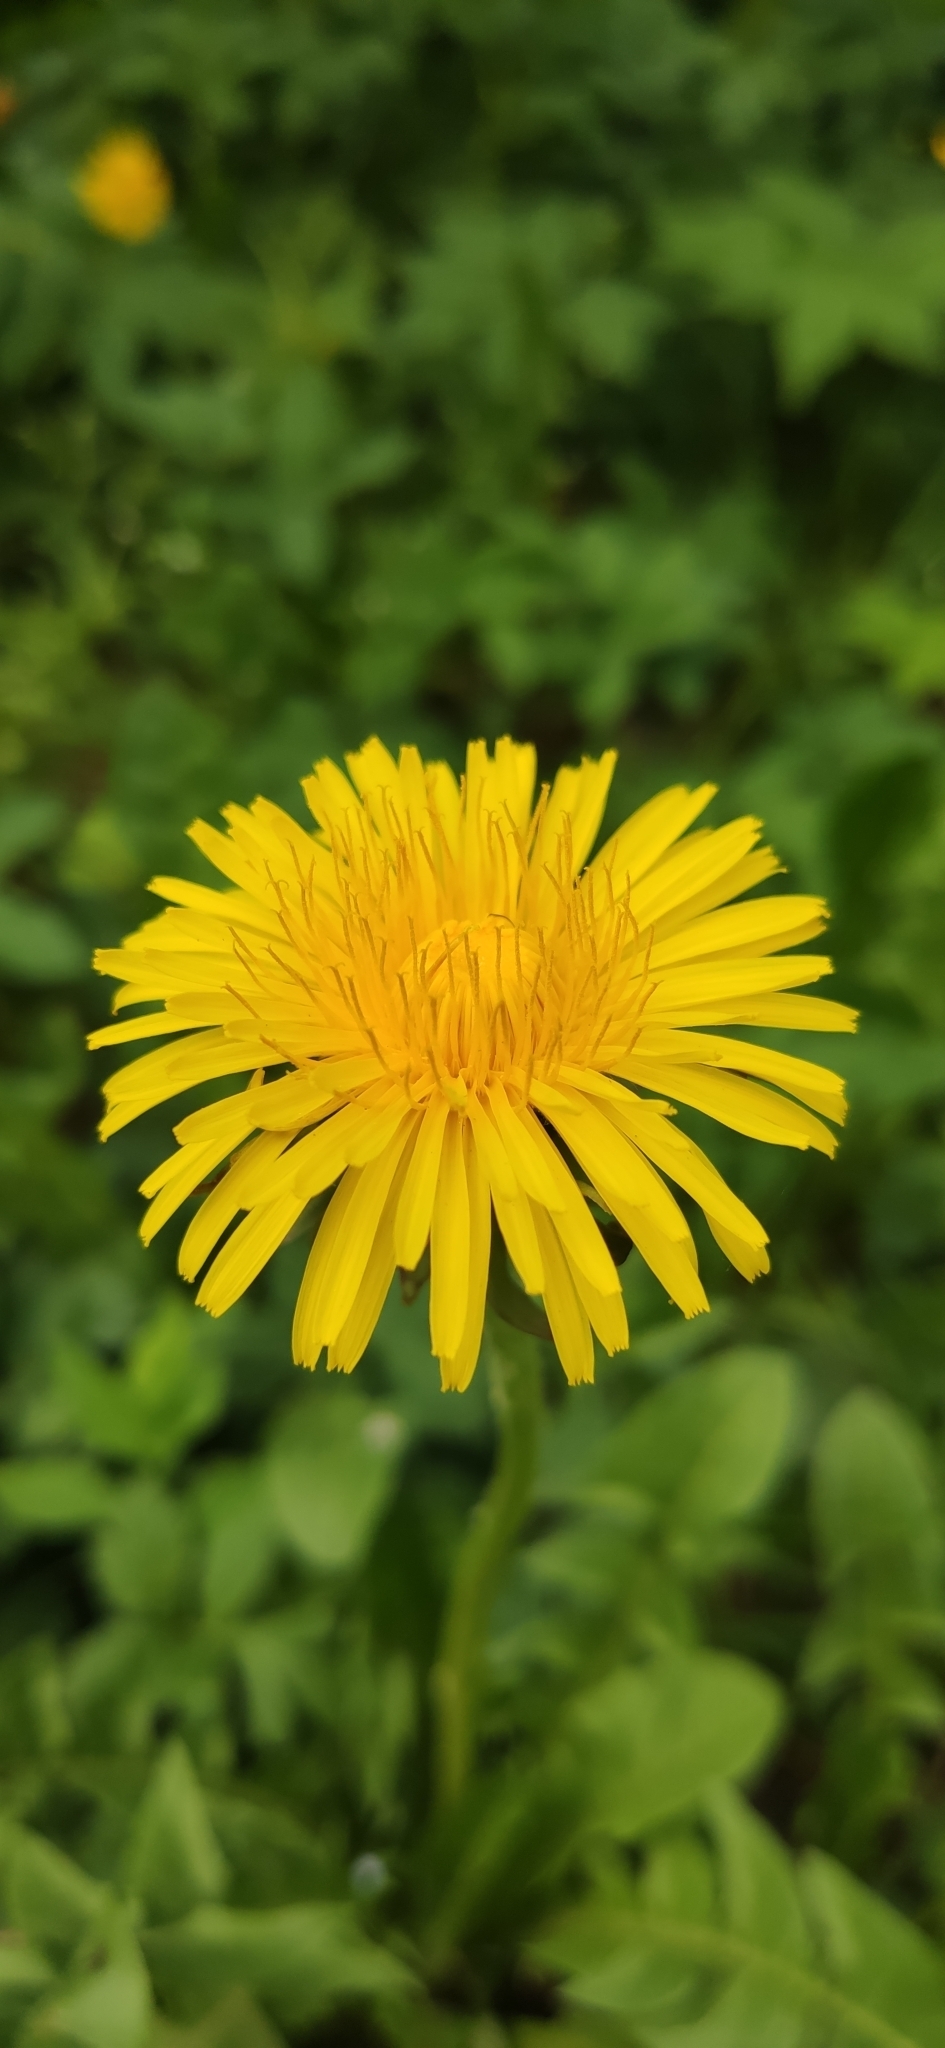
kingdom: Plantae
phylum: Tracheophyta
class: Magnoliopsida
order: Asterales
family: Asteraceae
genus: Taraxacum
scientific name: Taraxacum officinale
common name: Common dandelion
